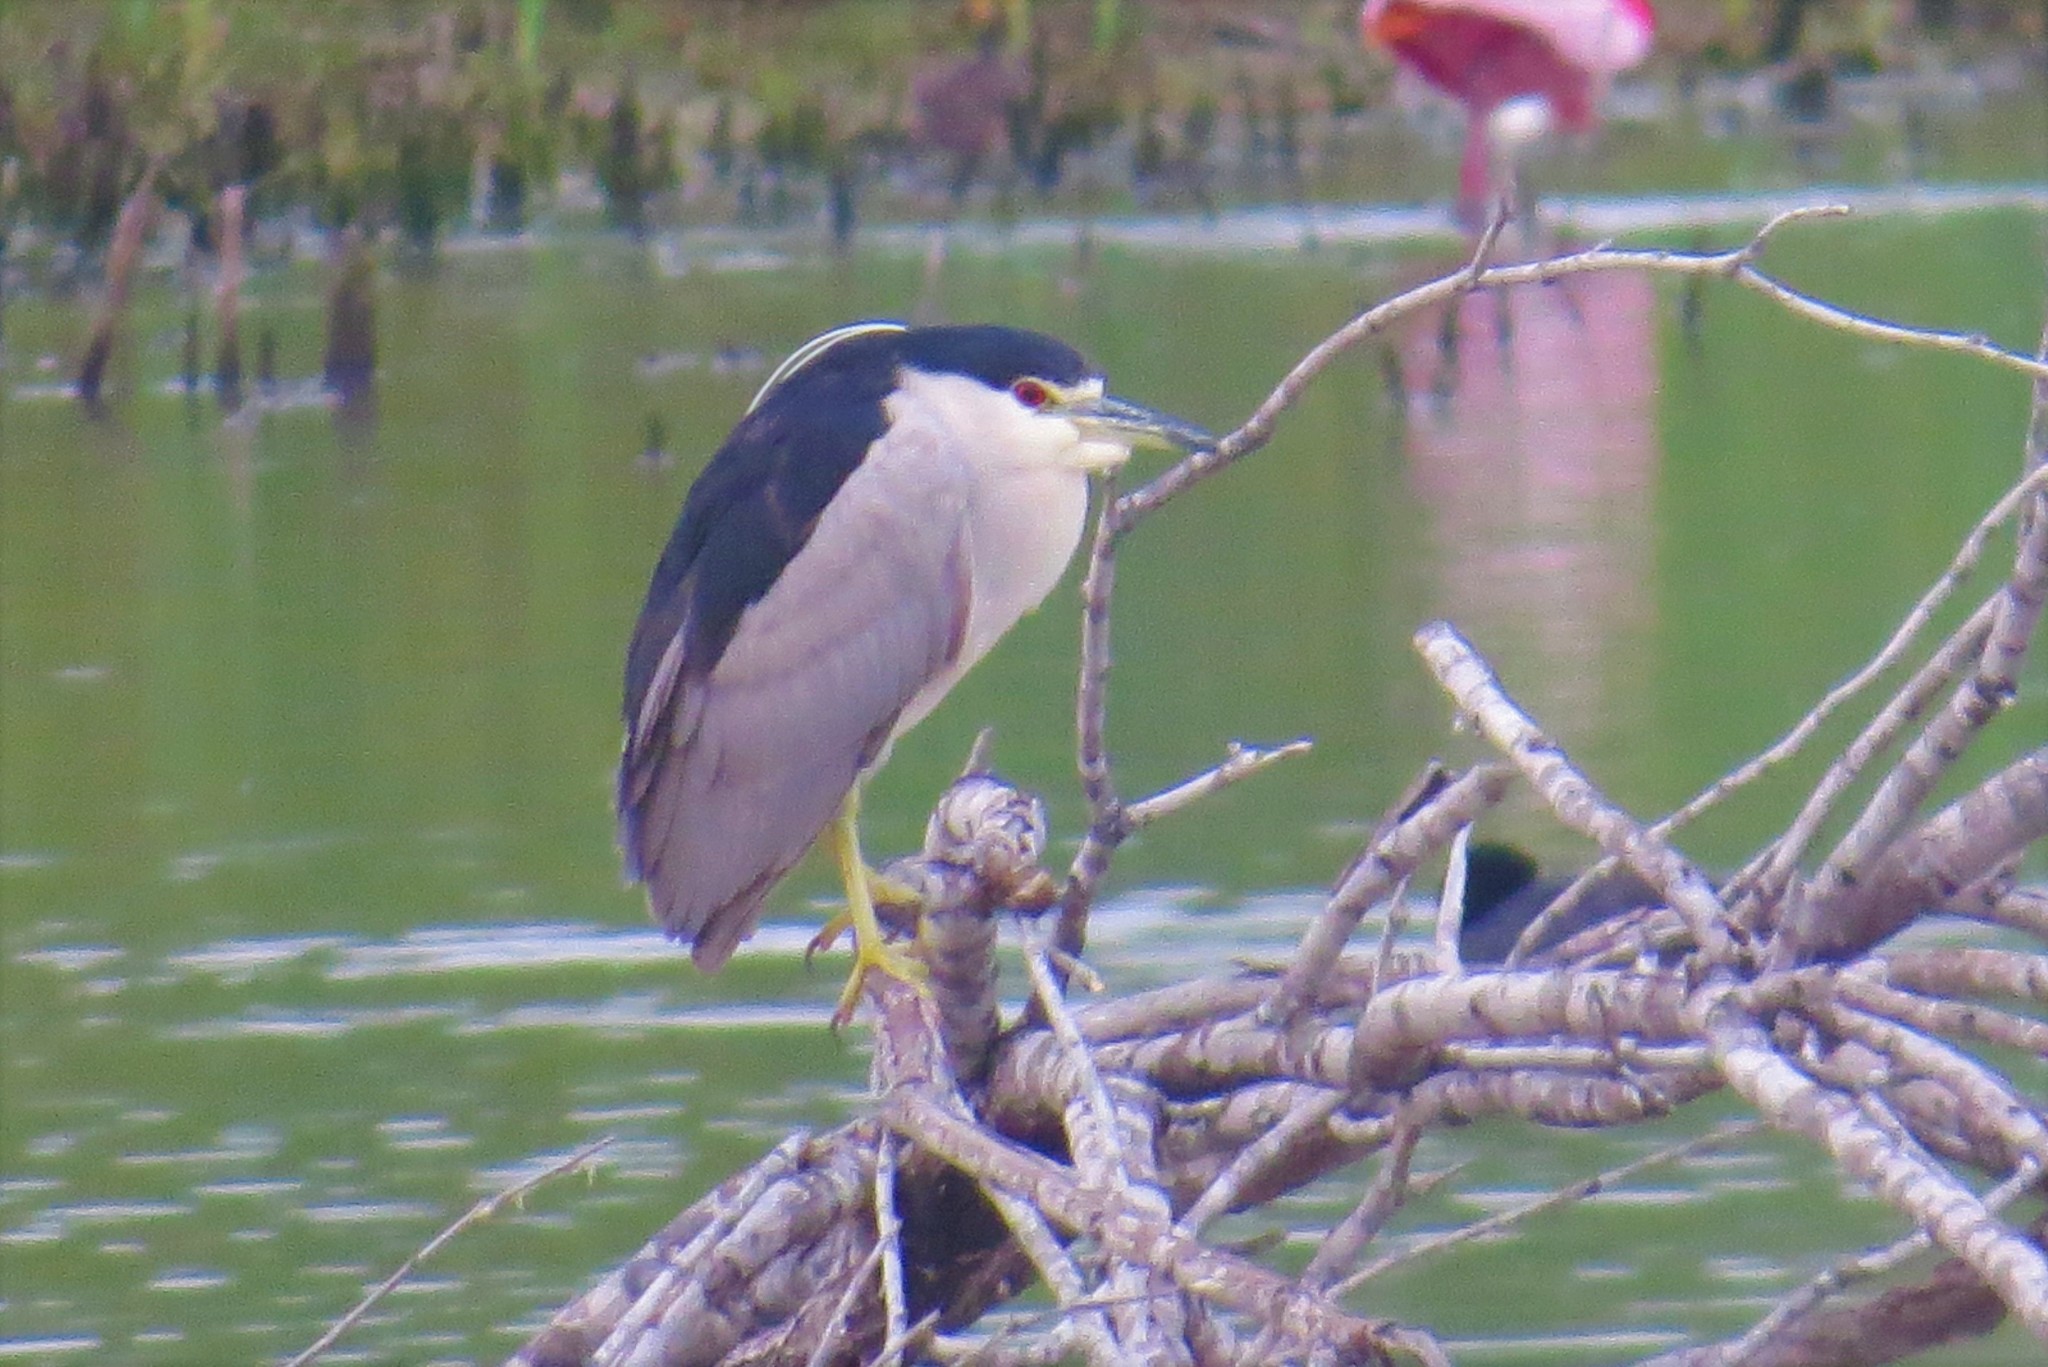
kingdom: Animalia
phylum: Chordata
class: Aves
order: Pelecaniformes
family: Ardeidae
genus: Nycticorax
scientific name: Nycticorax nycticorax
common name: Black-crowned night heron
